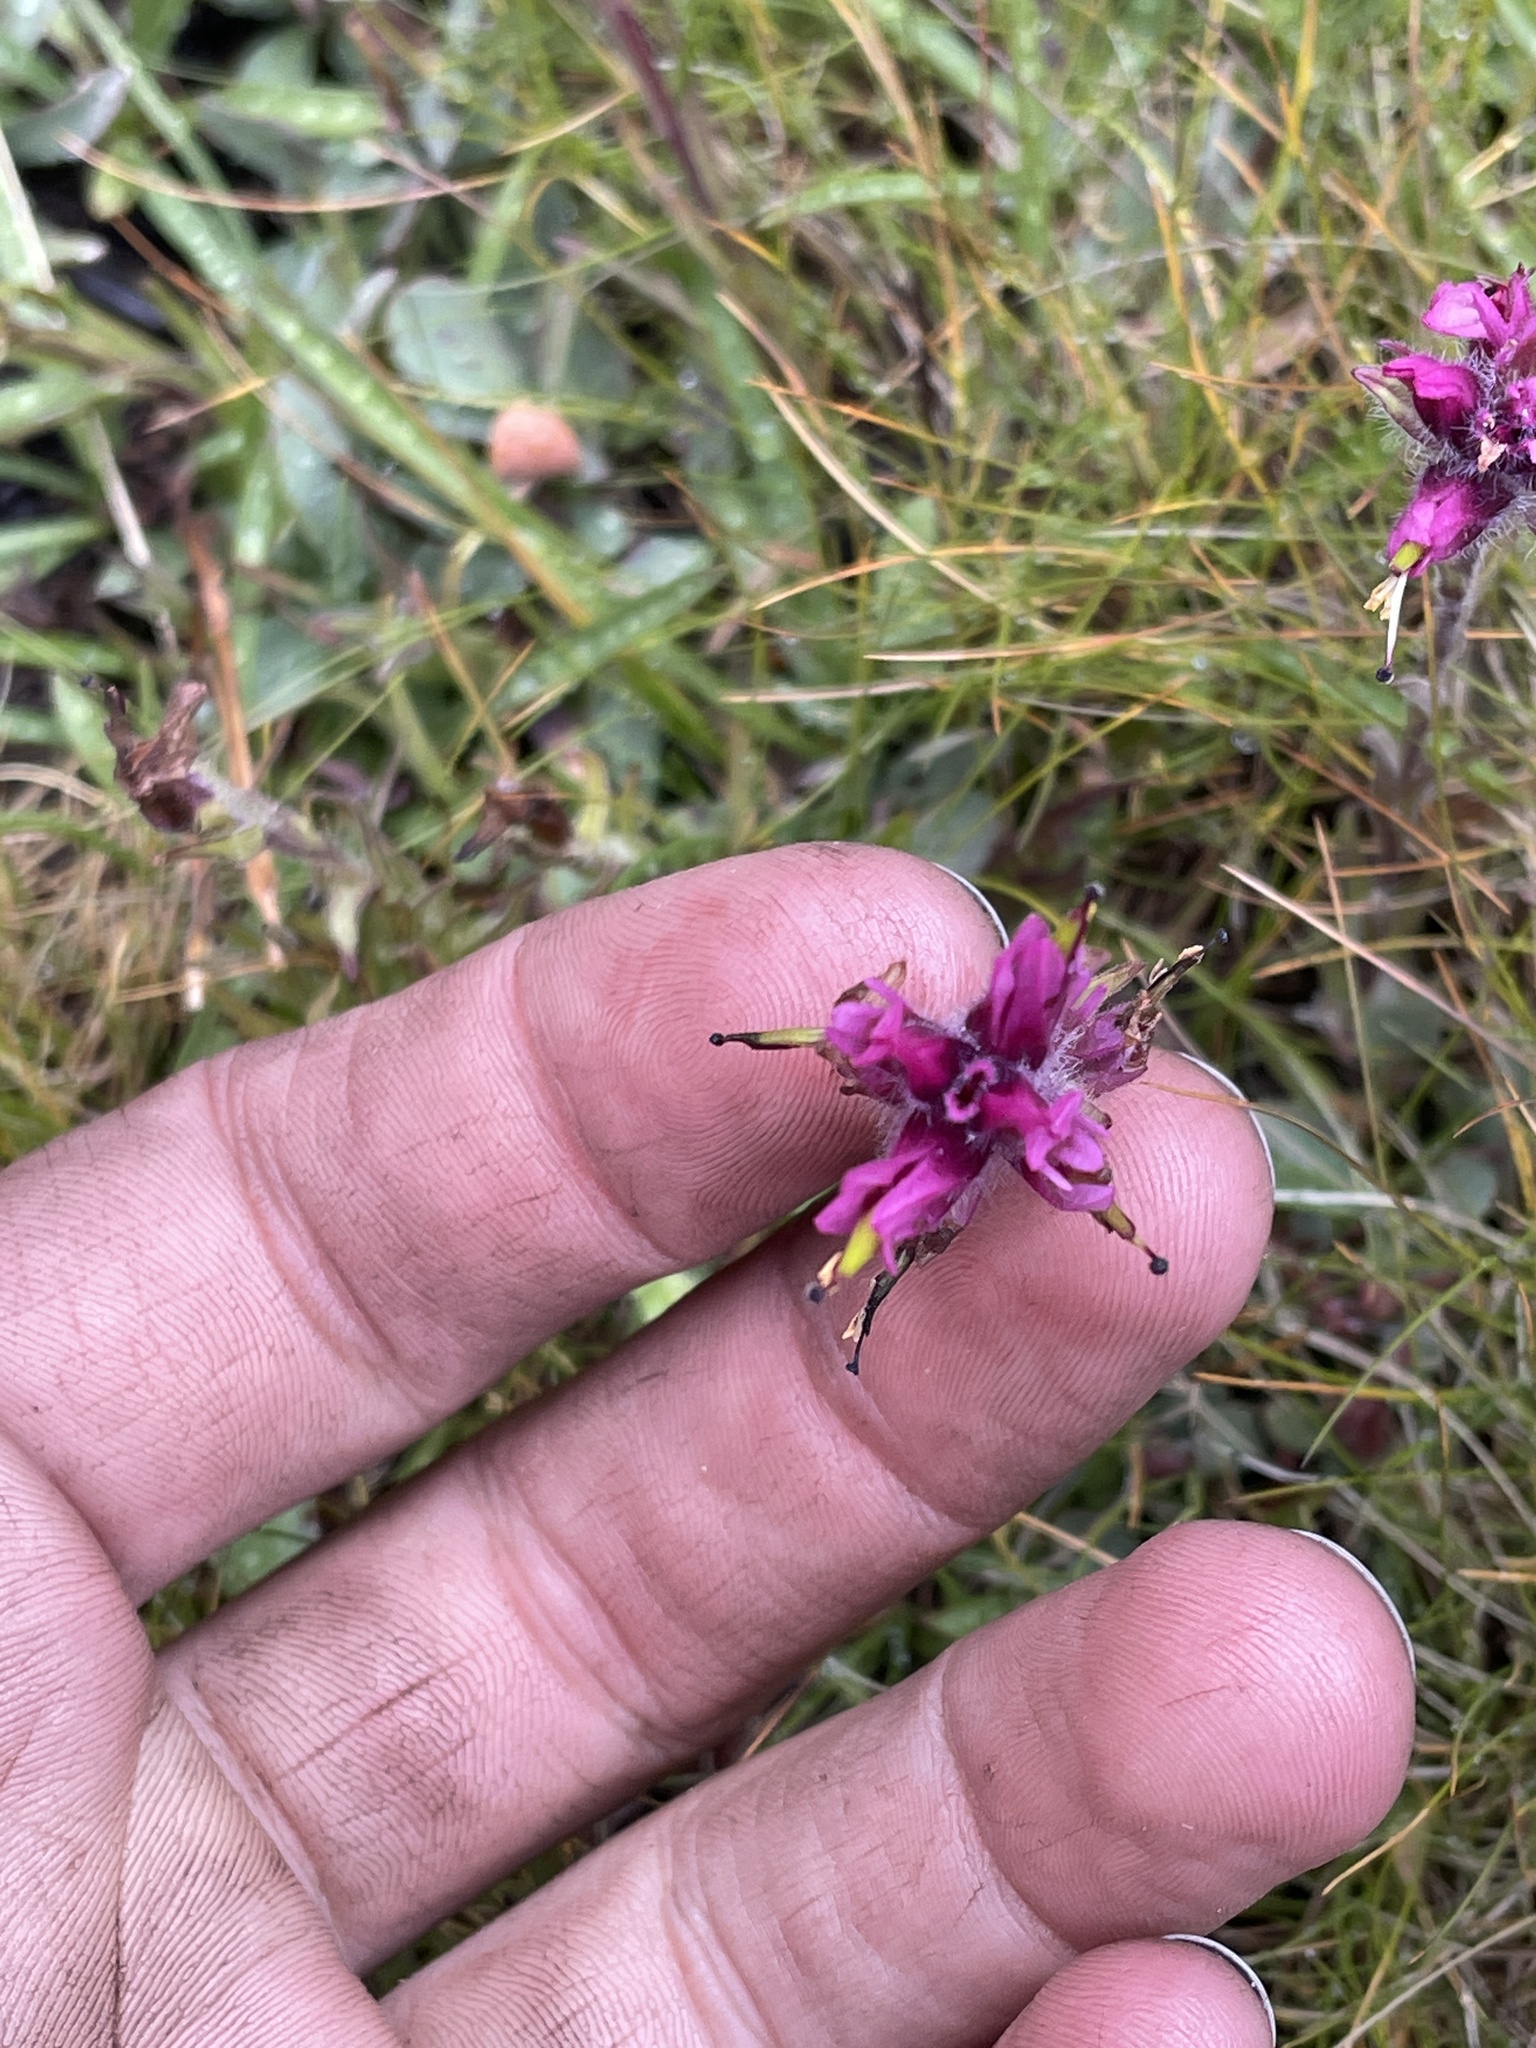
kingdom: Plantae
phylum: Tracheophyta
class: Magnoliopsida
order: Lamiales
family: Orobanchaceae
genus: Castilleja
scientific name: Castilleja lemmonii
